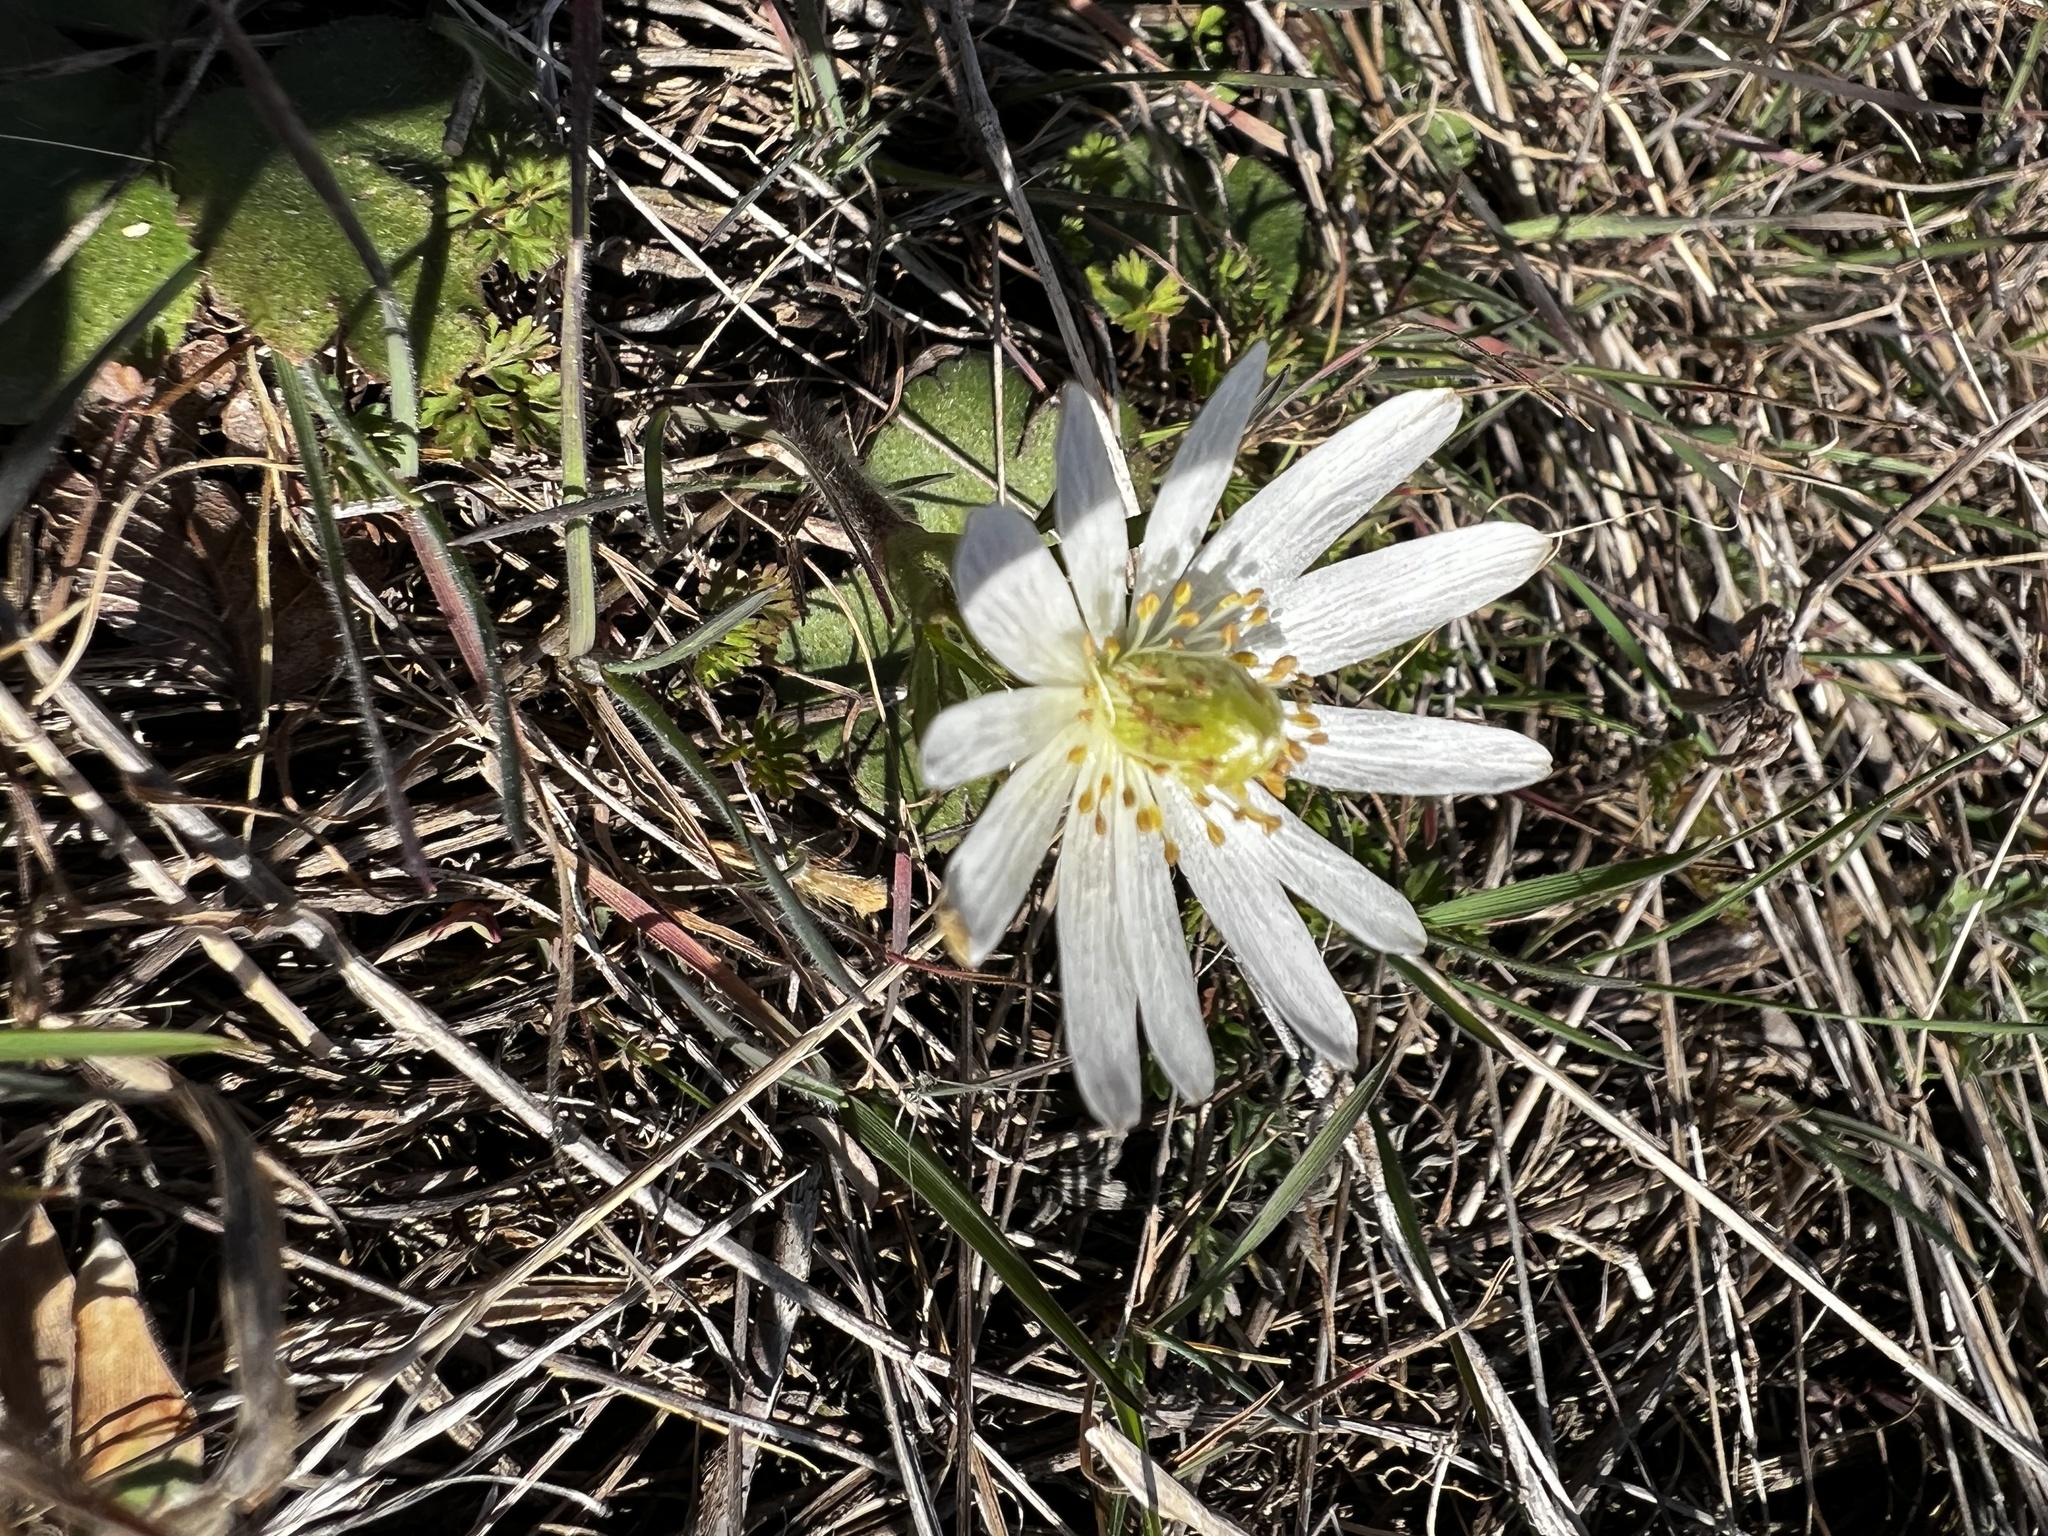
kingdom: Plantae
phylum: Tracheophyta
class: Magnoliopsida
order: Ranunculales
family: Ranunculaceae
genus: Anemone
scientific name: Anemone berlandieri
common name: Ten-petal anemone
